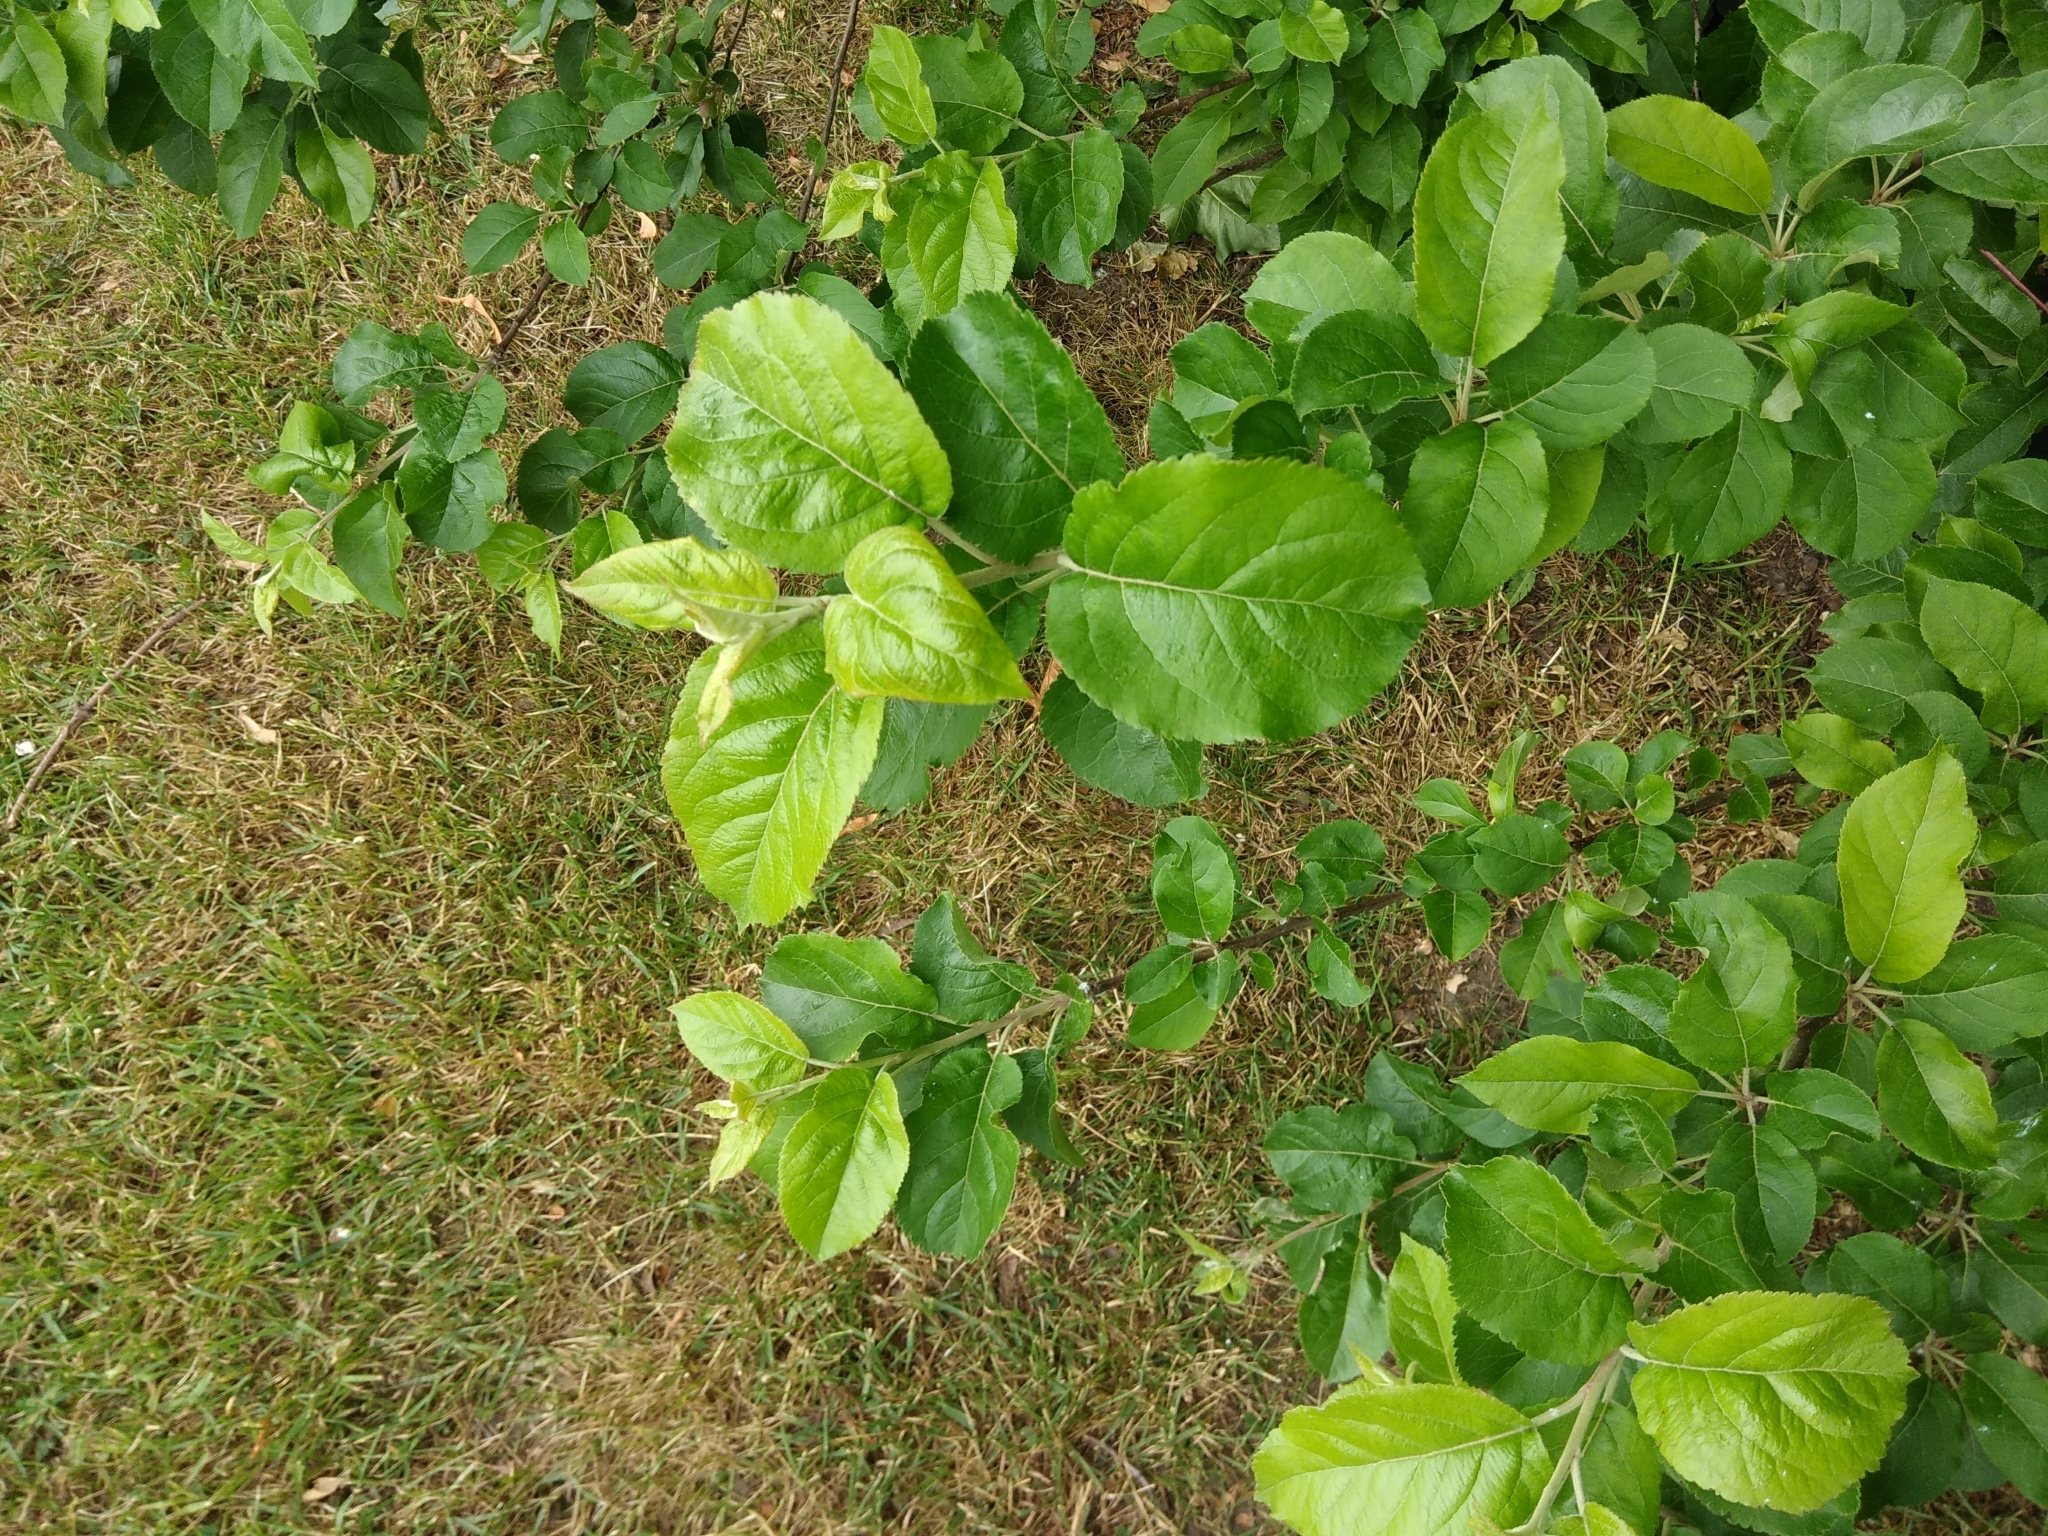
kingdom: Plantae
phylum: Tracheophyta
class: Magnoliopsida
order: Rosales
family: Rosaceae
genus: Malus
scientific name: Malus domestica
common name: Apple
